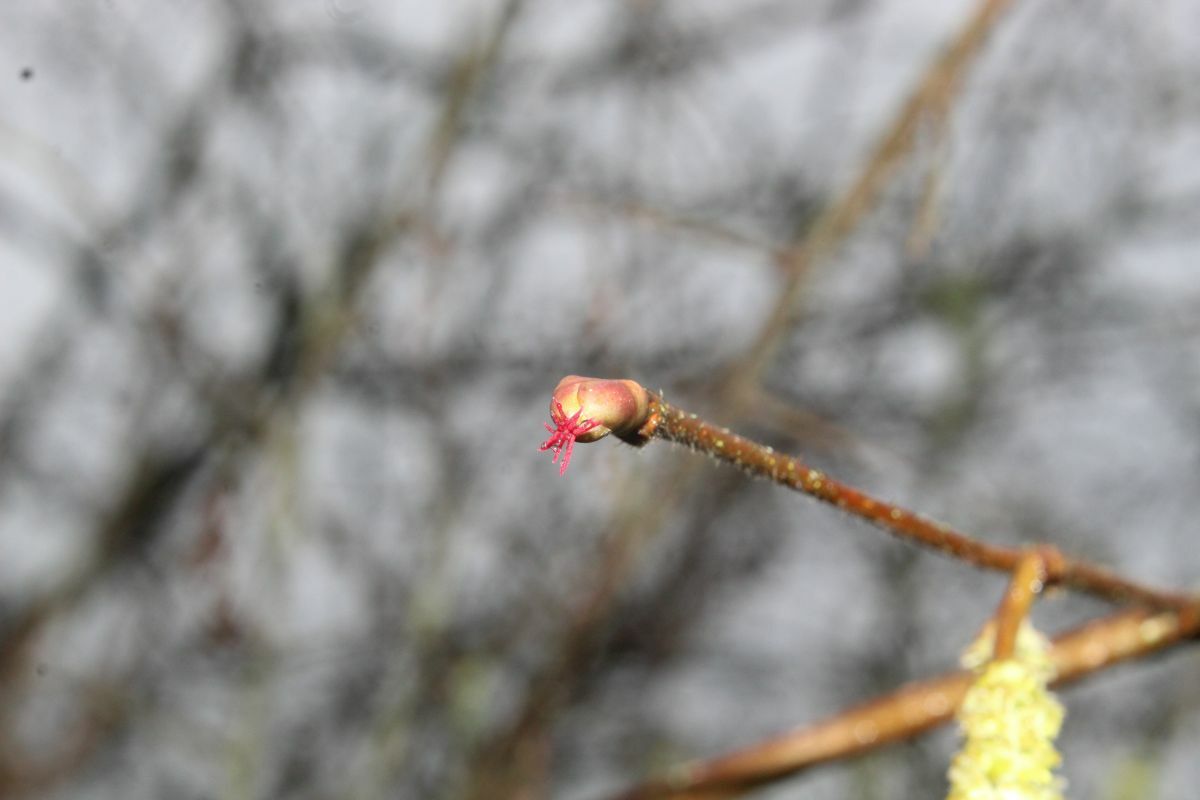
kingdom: Plantae
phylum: Tracheophyta
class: Magnoliopsida
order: Fagales
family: Betulaceae
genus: Corylus
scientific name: Corylus avellana
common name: European hazel
